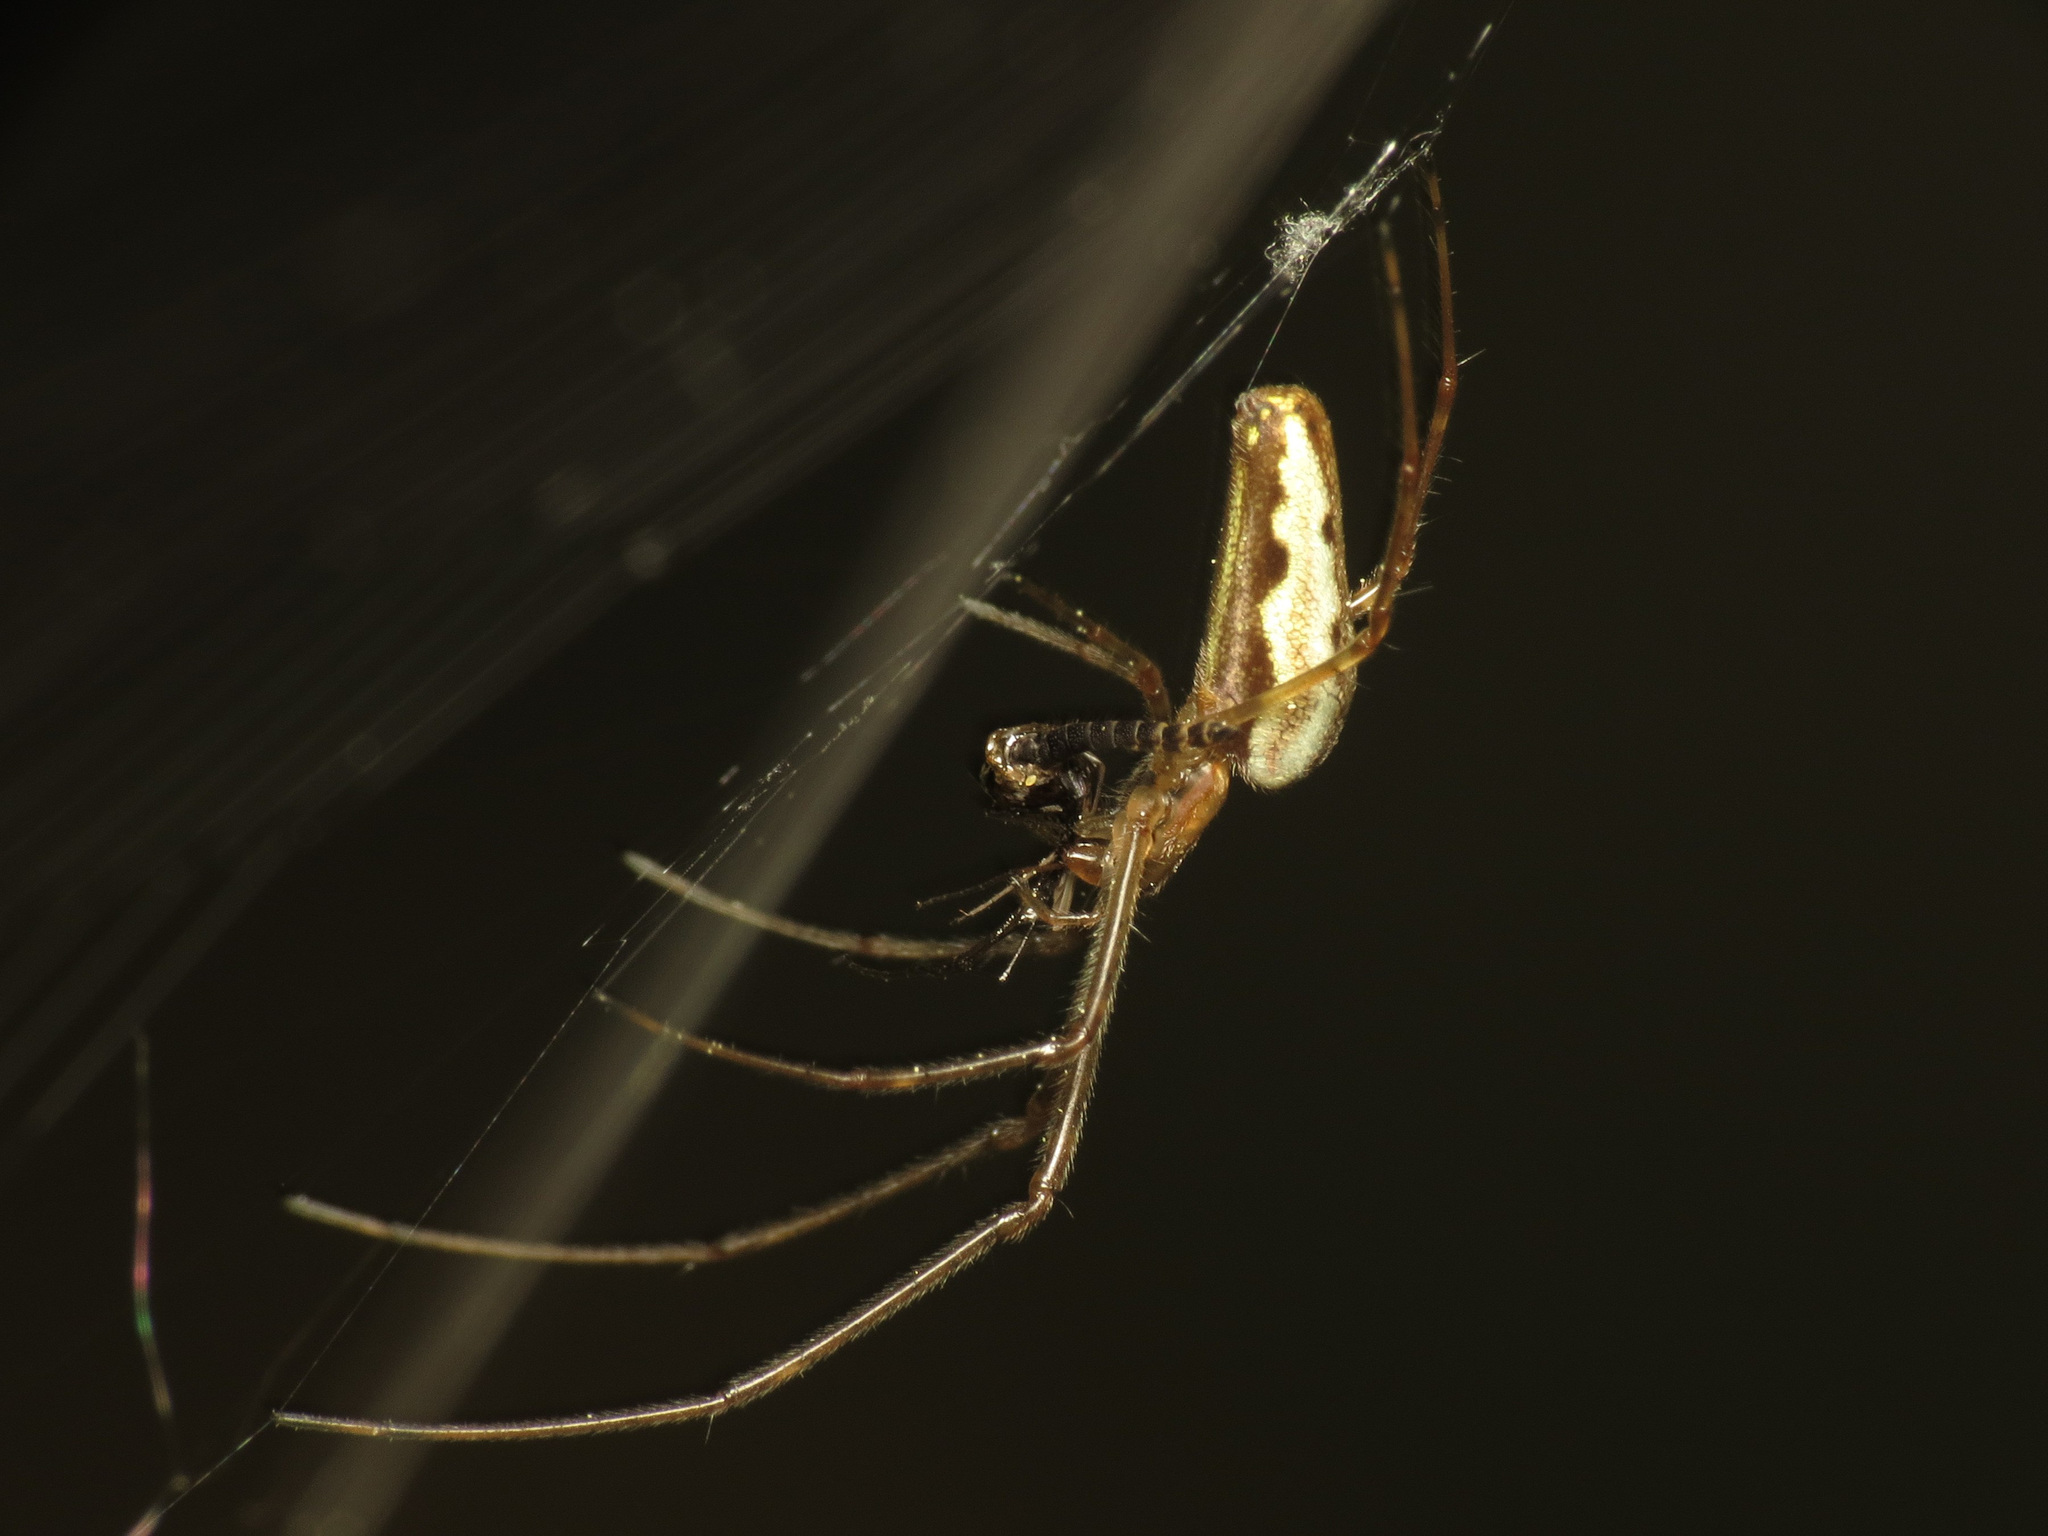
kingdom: Animalia
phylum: Arthropoda
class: Arachnida
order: Araneae
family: Tetragnathidae
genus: Tetragnatha
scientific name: Tetragnatha extensa
